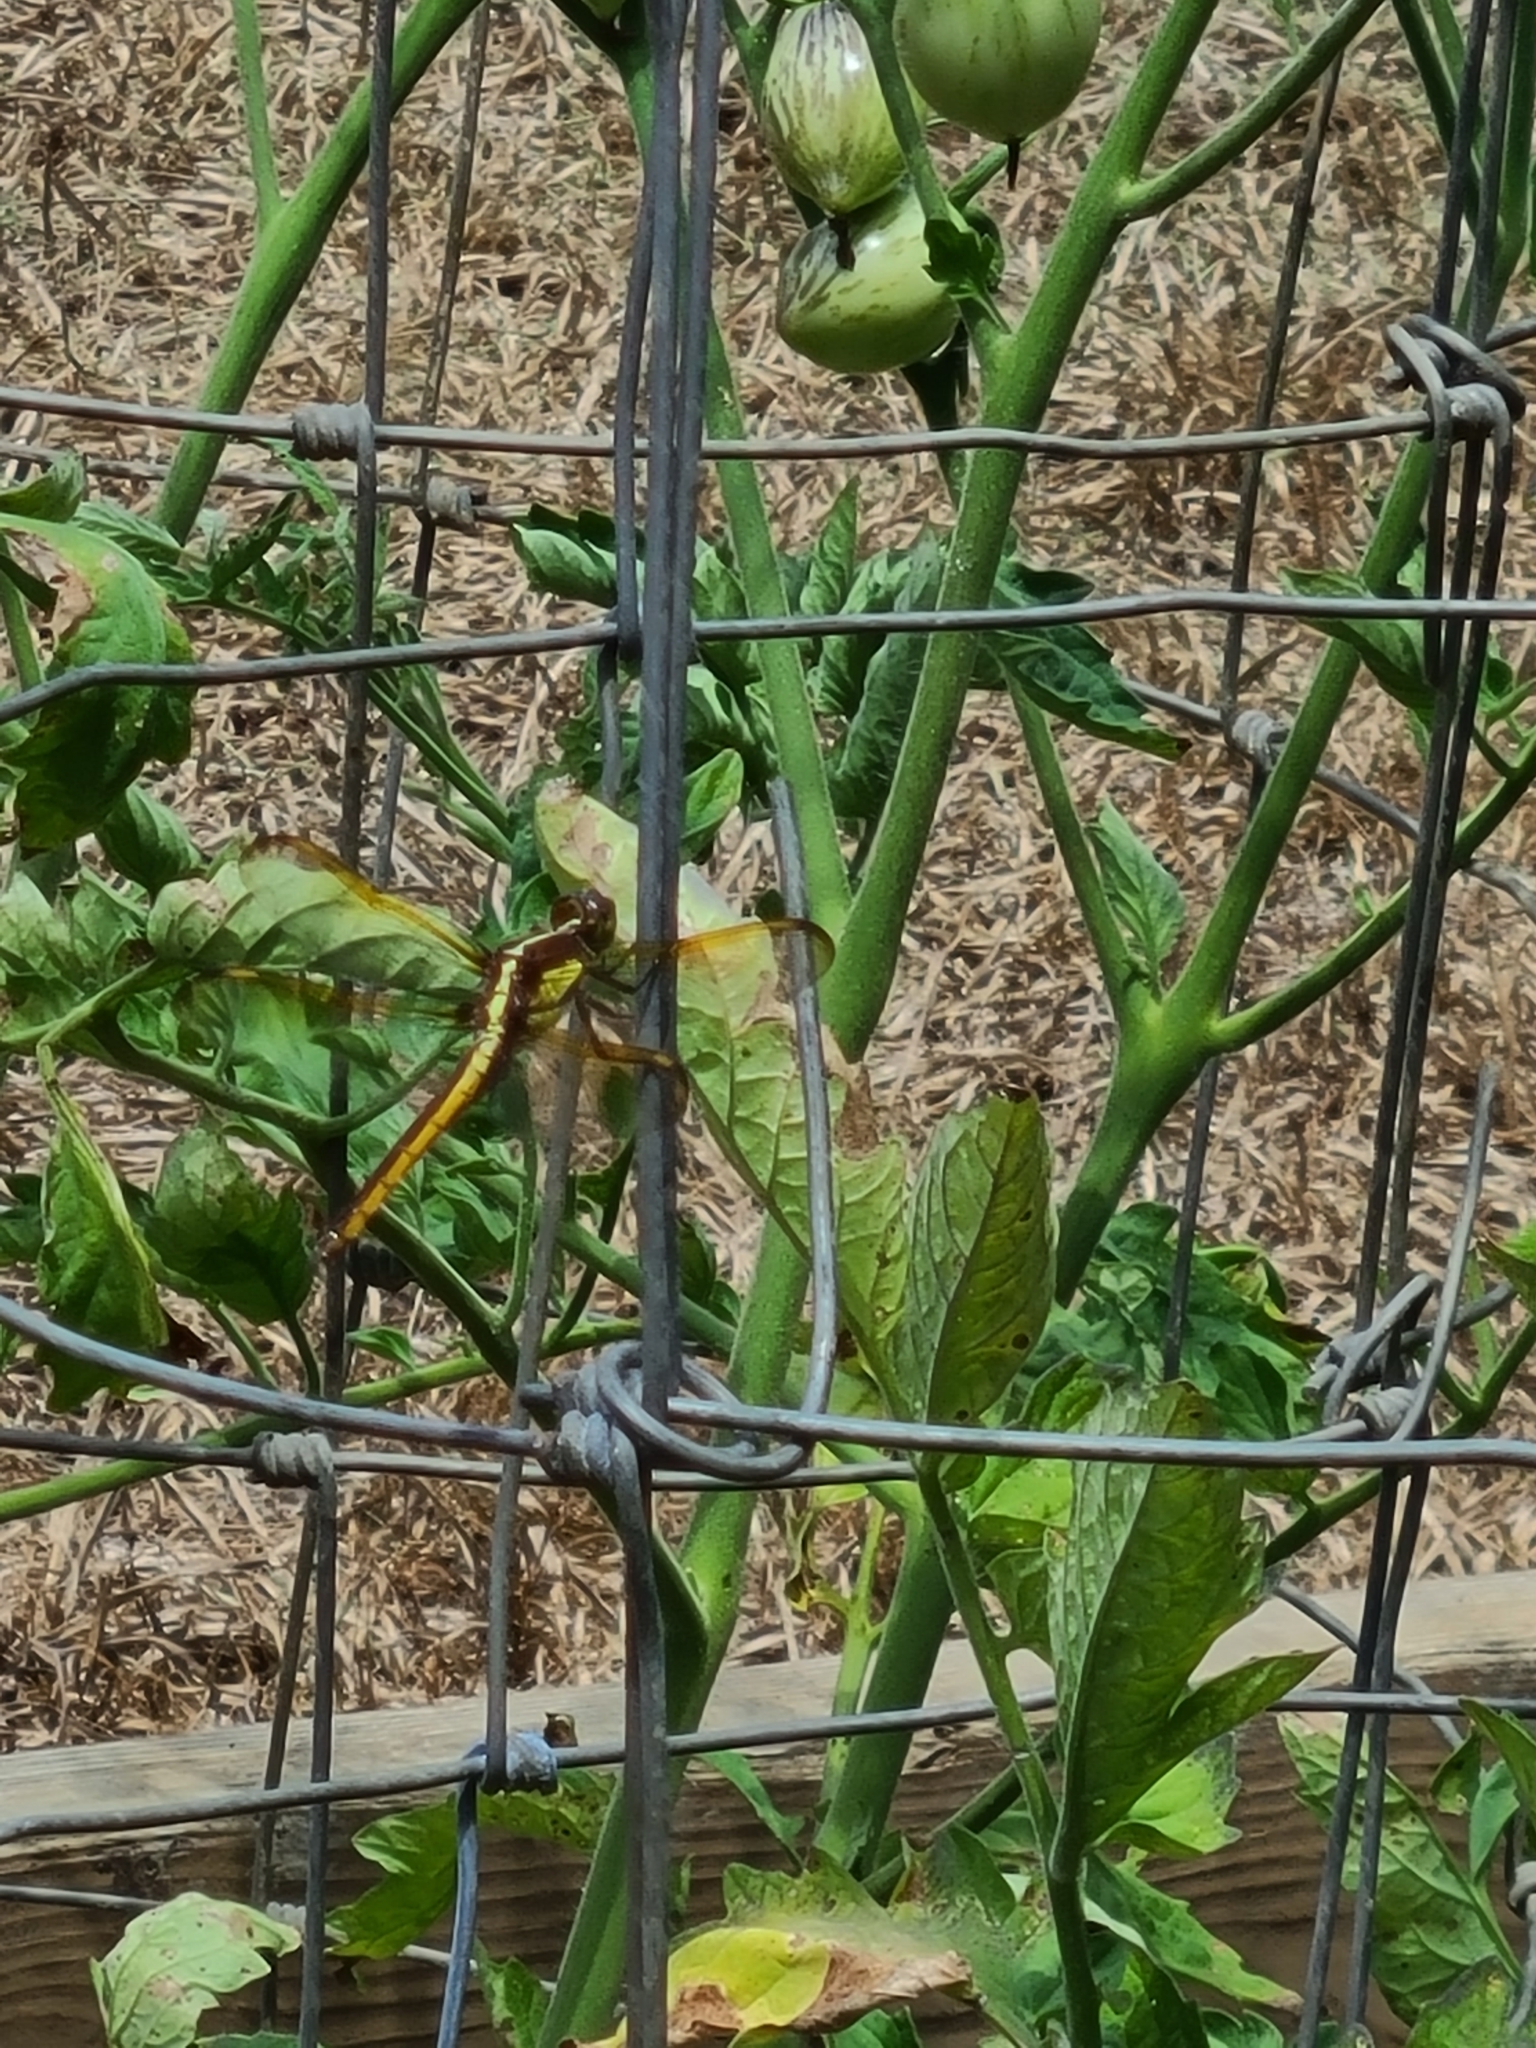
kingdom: Animalia
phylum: Arthropoda
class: Insecta
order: Odonata
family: Libellulidae
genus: Libellula
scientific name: Libellula flavida
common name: Yellow-sided skimmer
